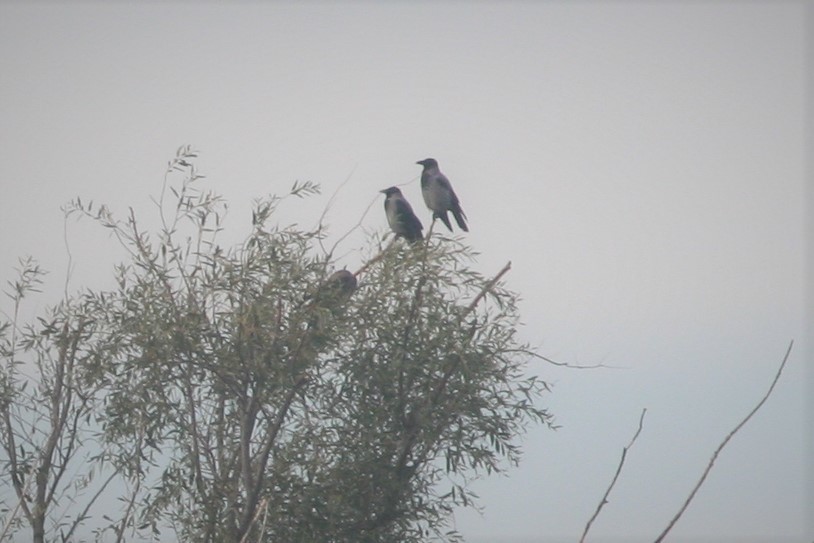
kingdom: Animalia
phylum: Chordata
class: Aves
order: Passeriformes
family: Corvidae
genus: Corvus
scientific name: Corvus cornix
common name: Hooded crow
